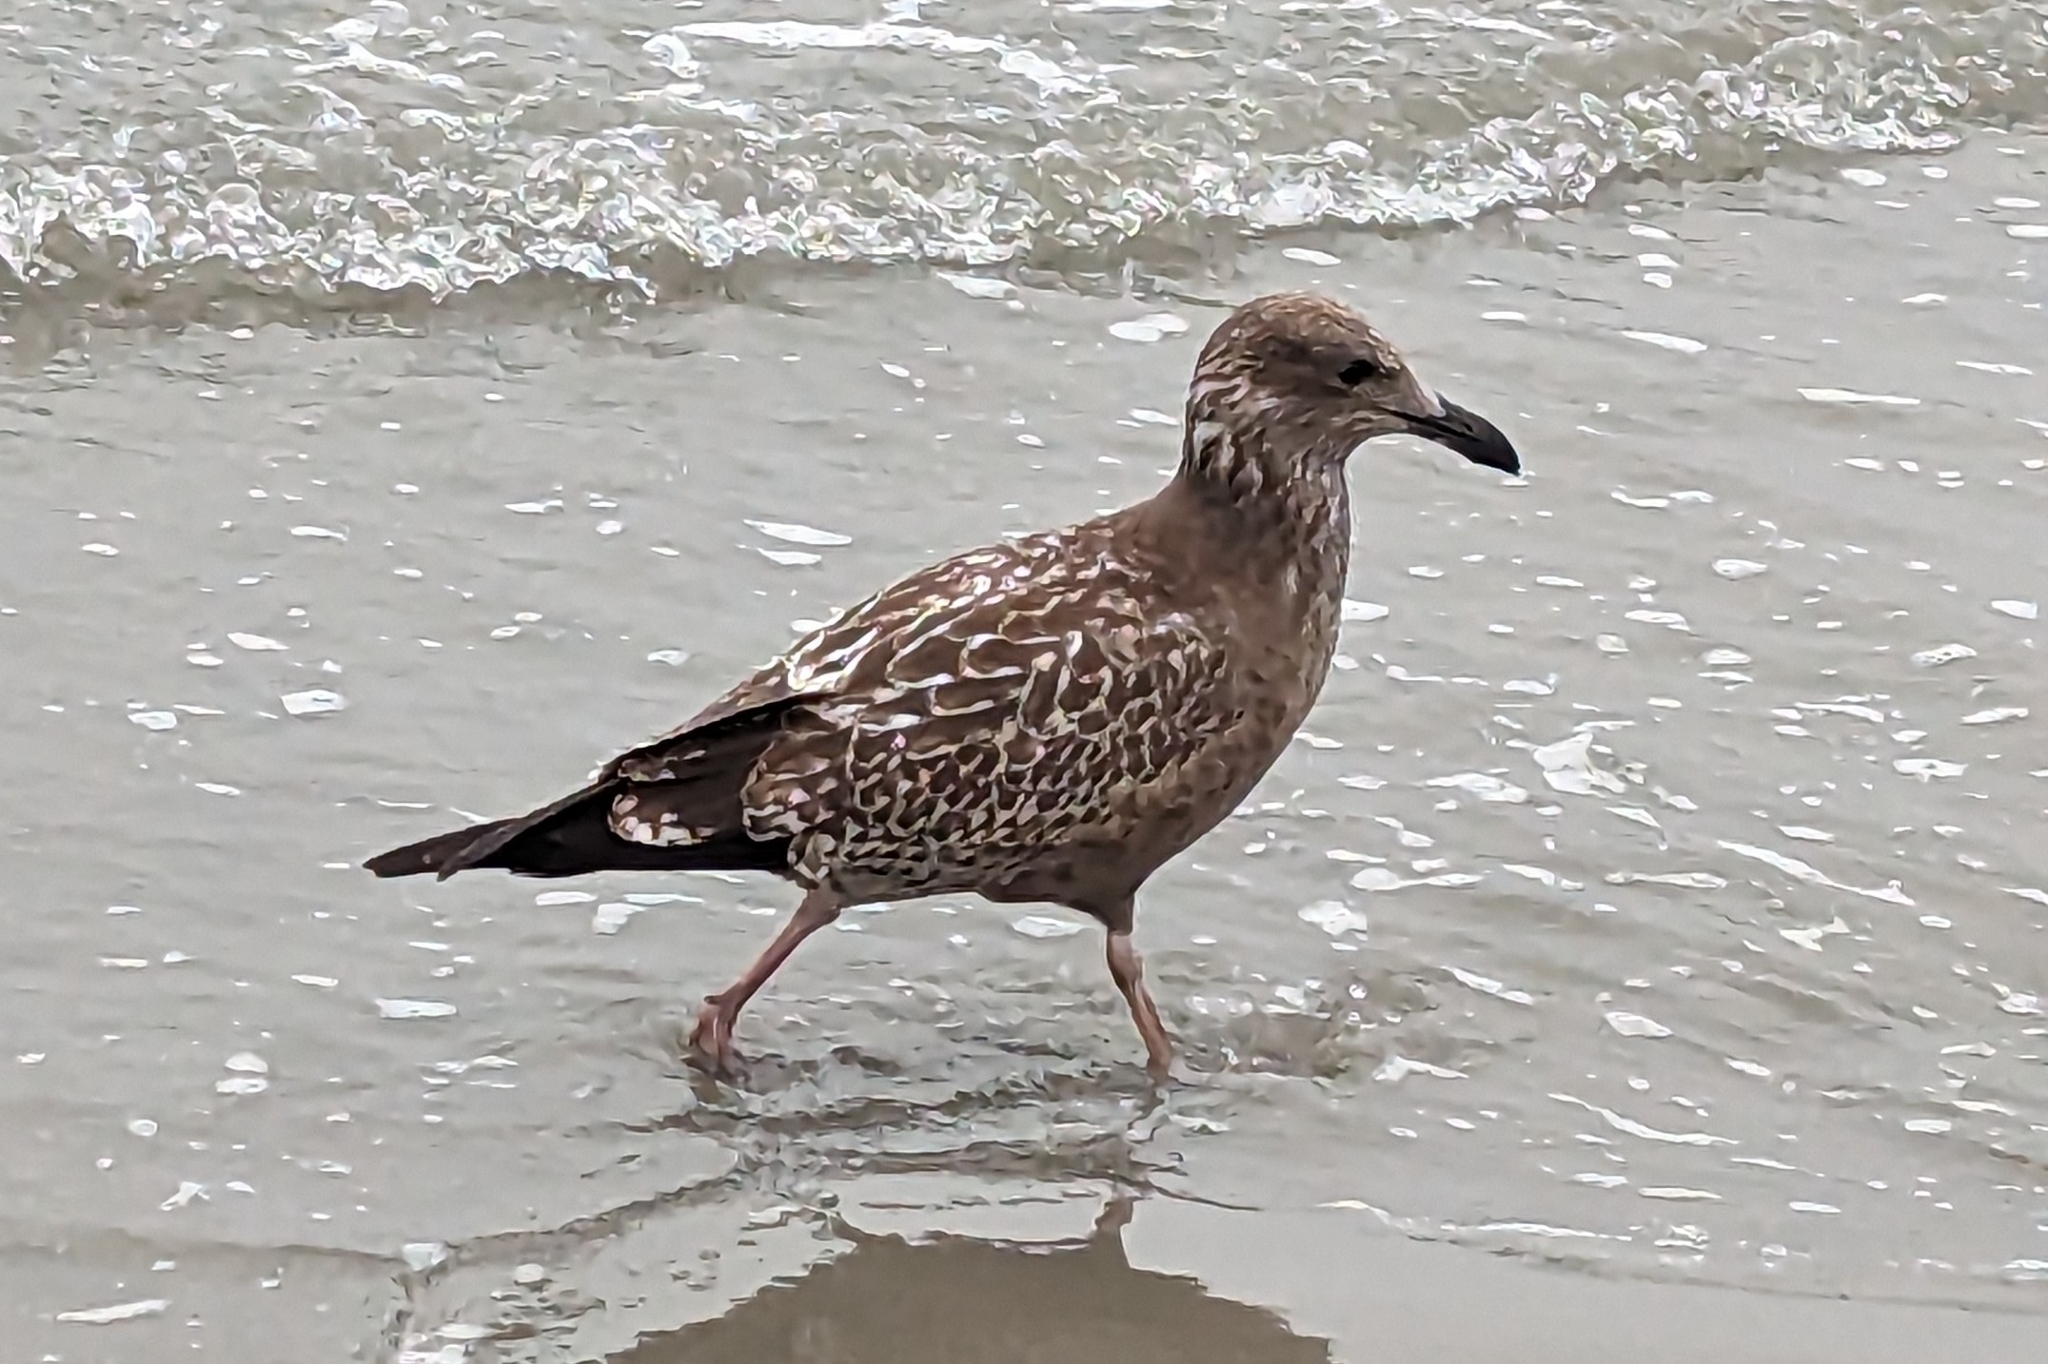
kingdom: Animalia
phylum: Chordata
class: Aves
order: Charadriiformes
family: Laridae
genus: Larus
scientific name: Larus argentatus
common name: Herring gull
